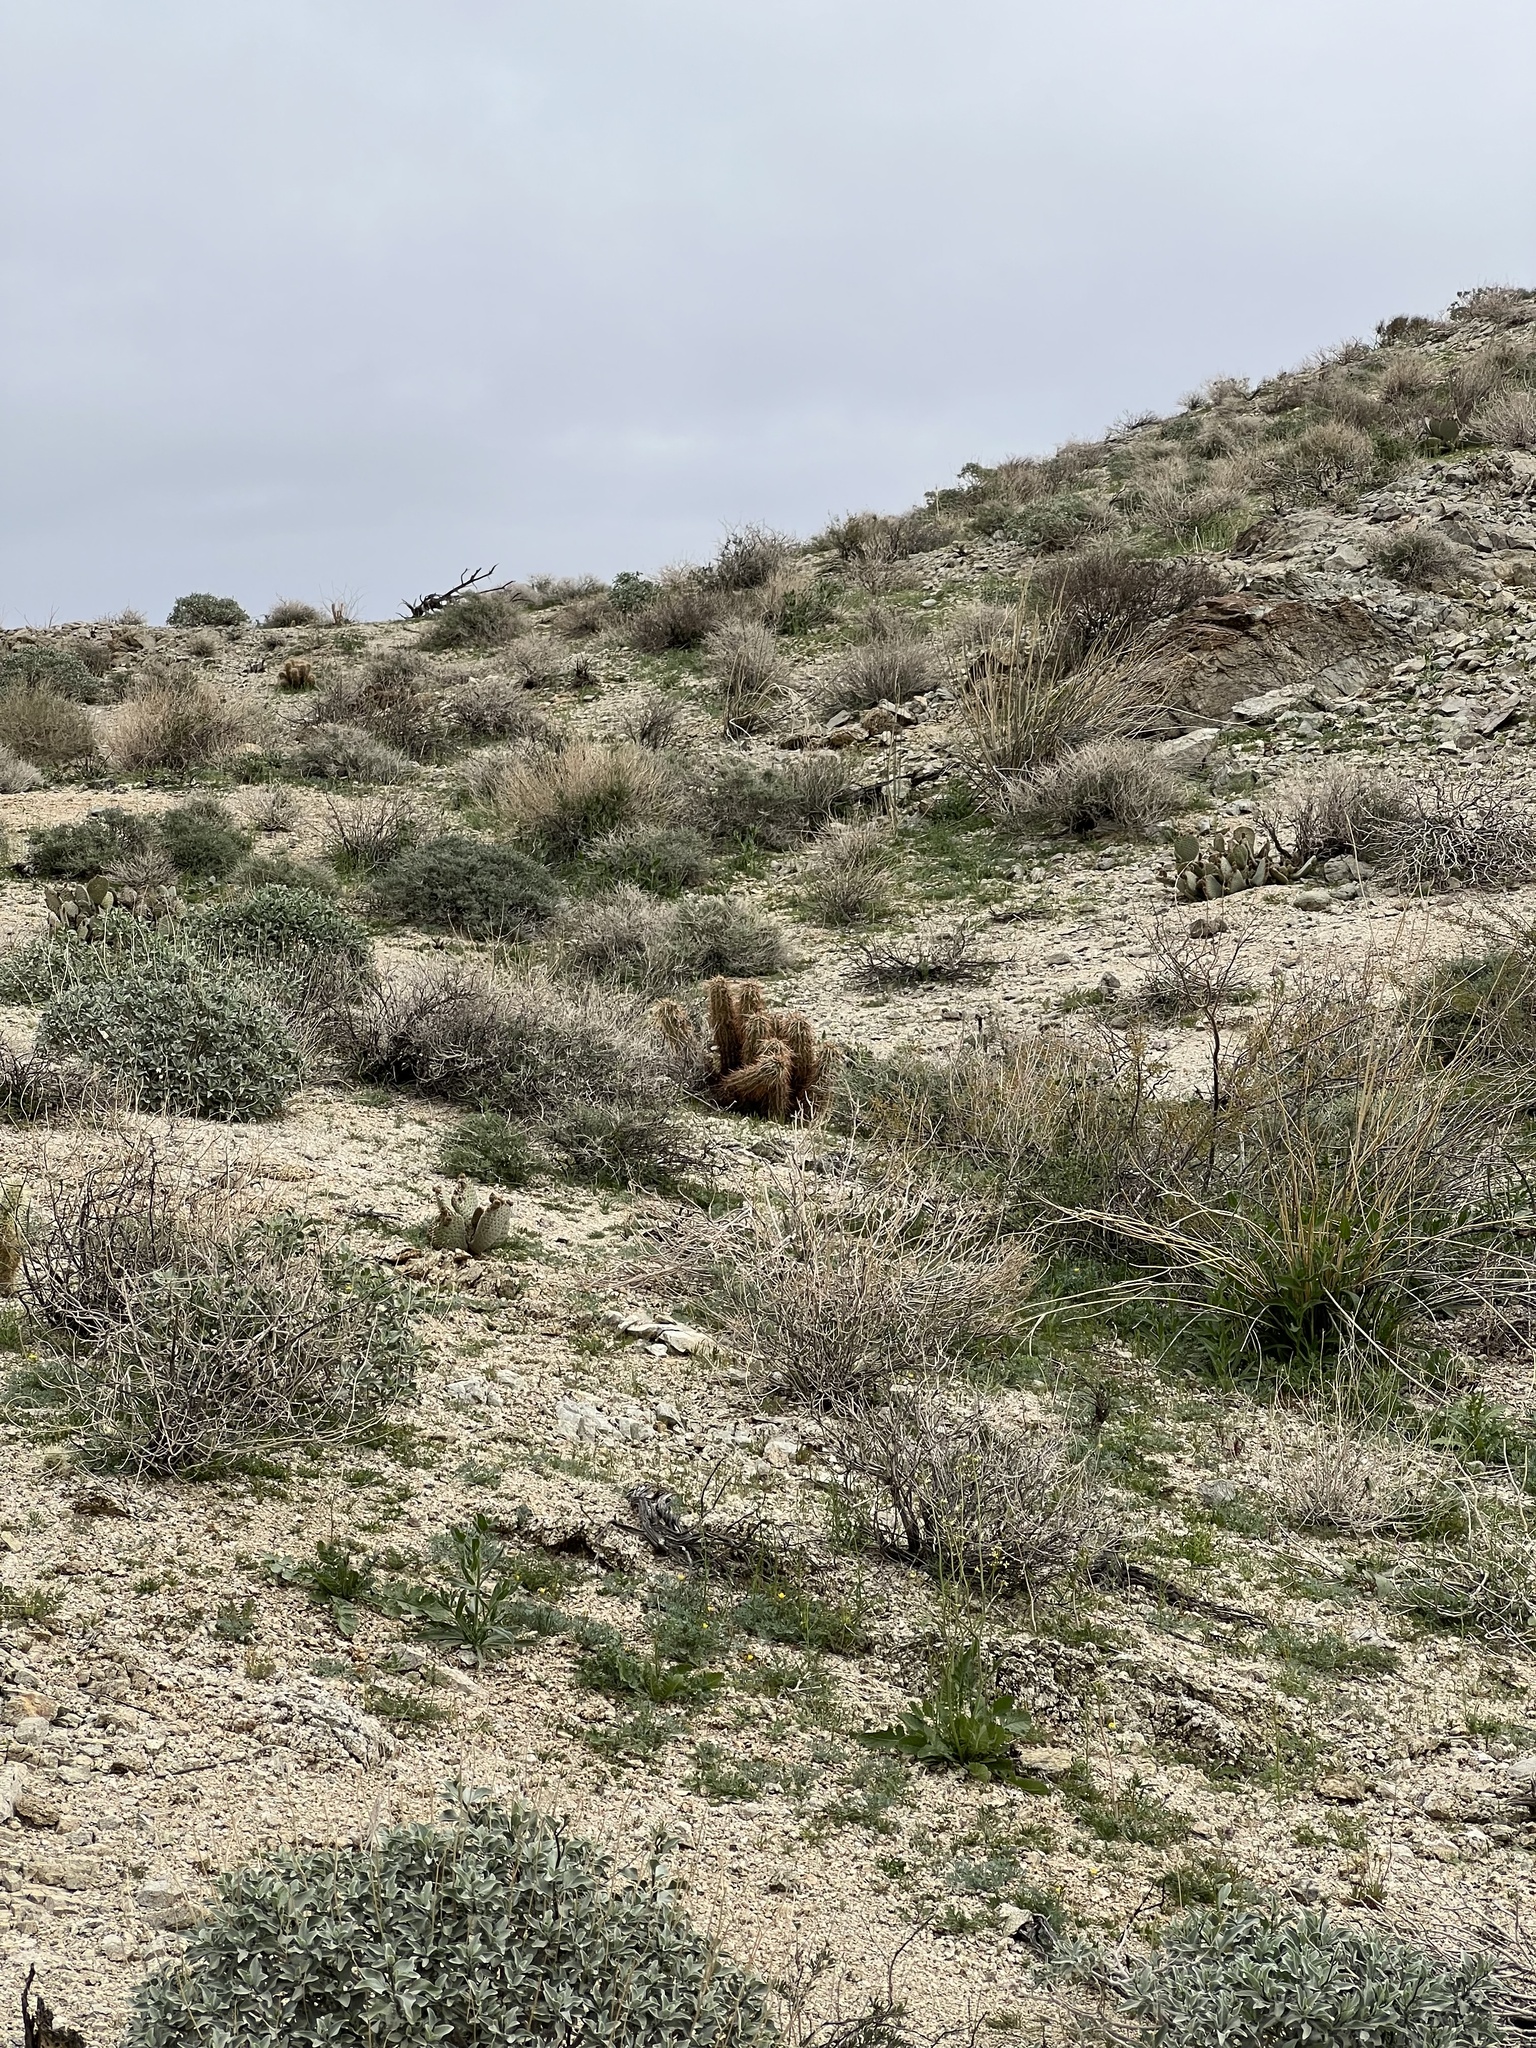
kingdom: Plantae
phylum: Tracheophyta
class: Magnoliopsida
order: Caryophyllales
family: Cactaceae
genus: Echinocereus
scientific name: Echinocereus engelmannii
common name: Engelmann's hedgehog cactus
